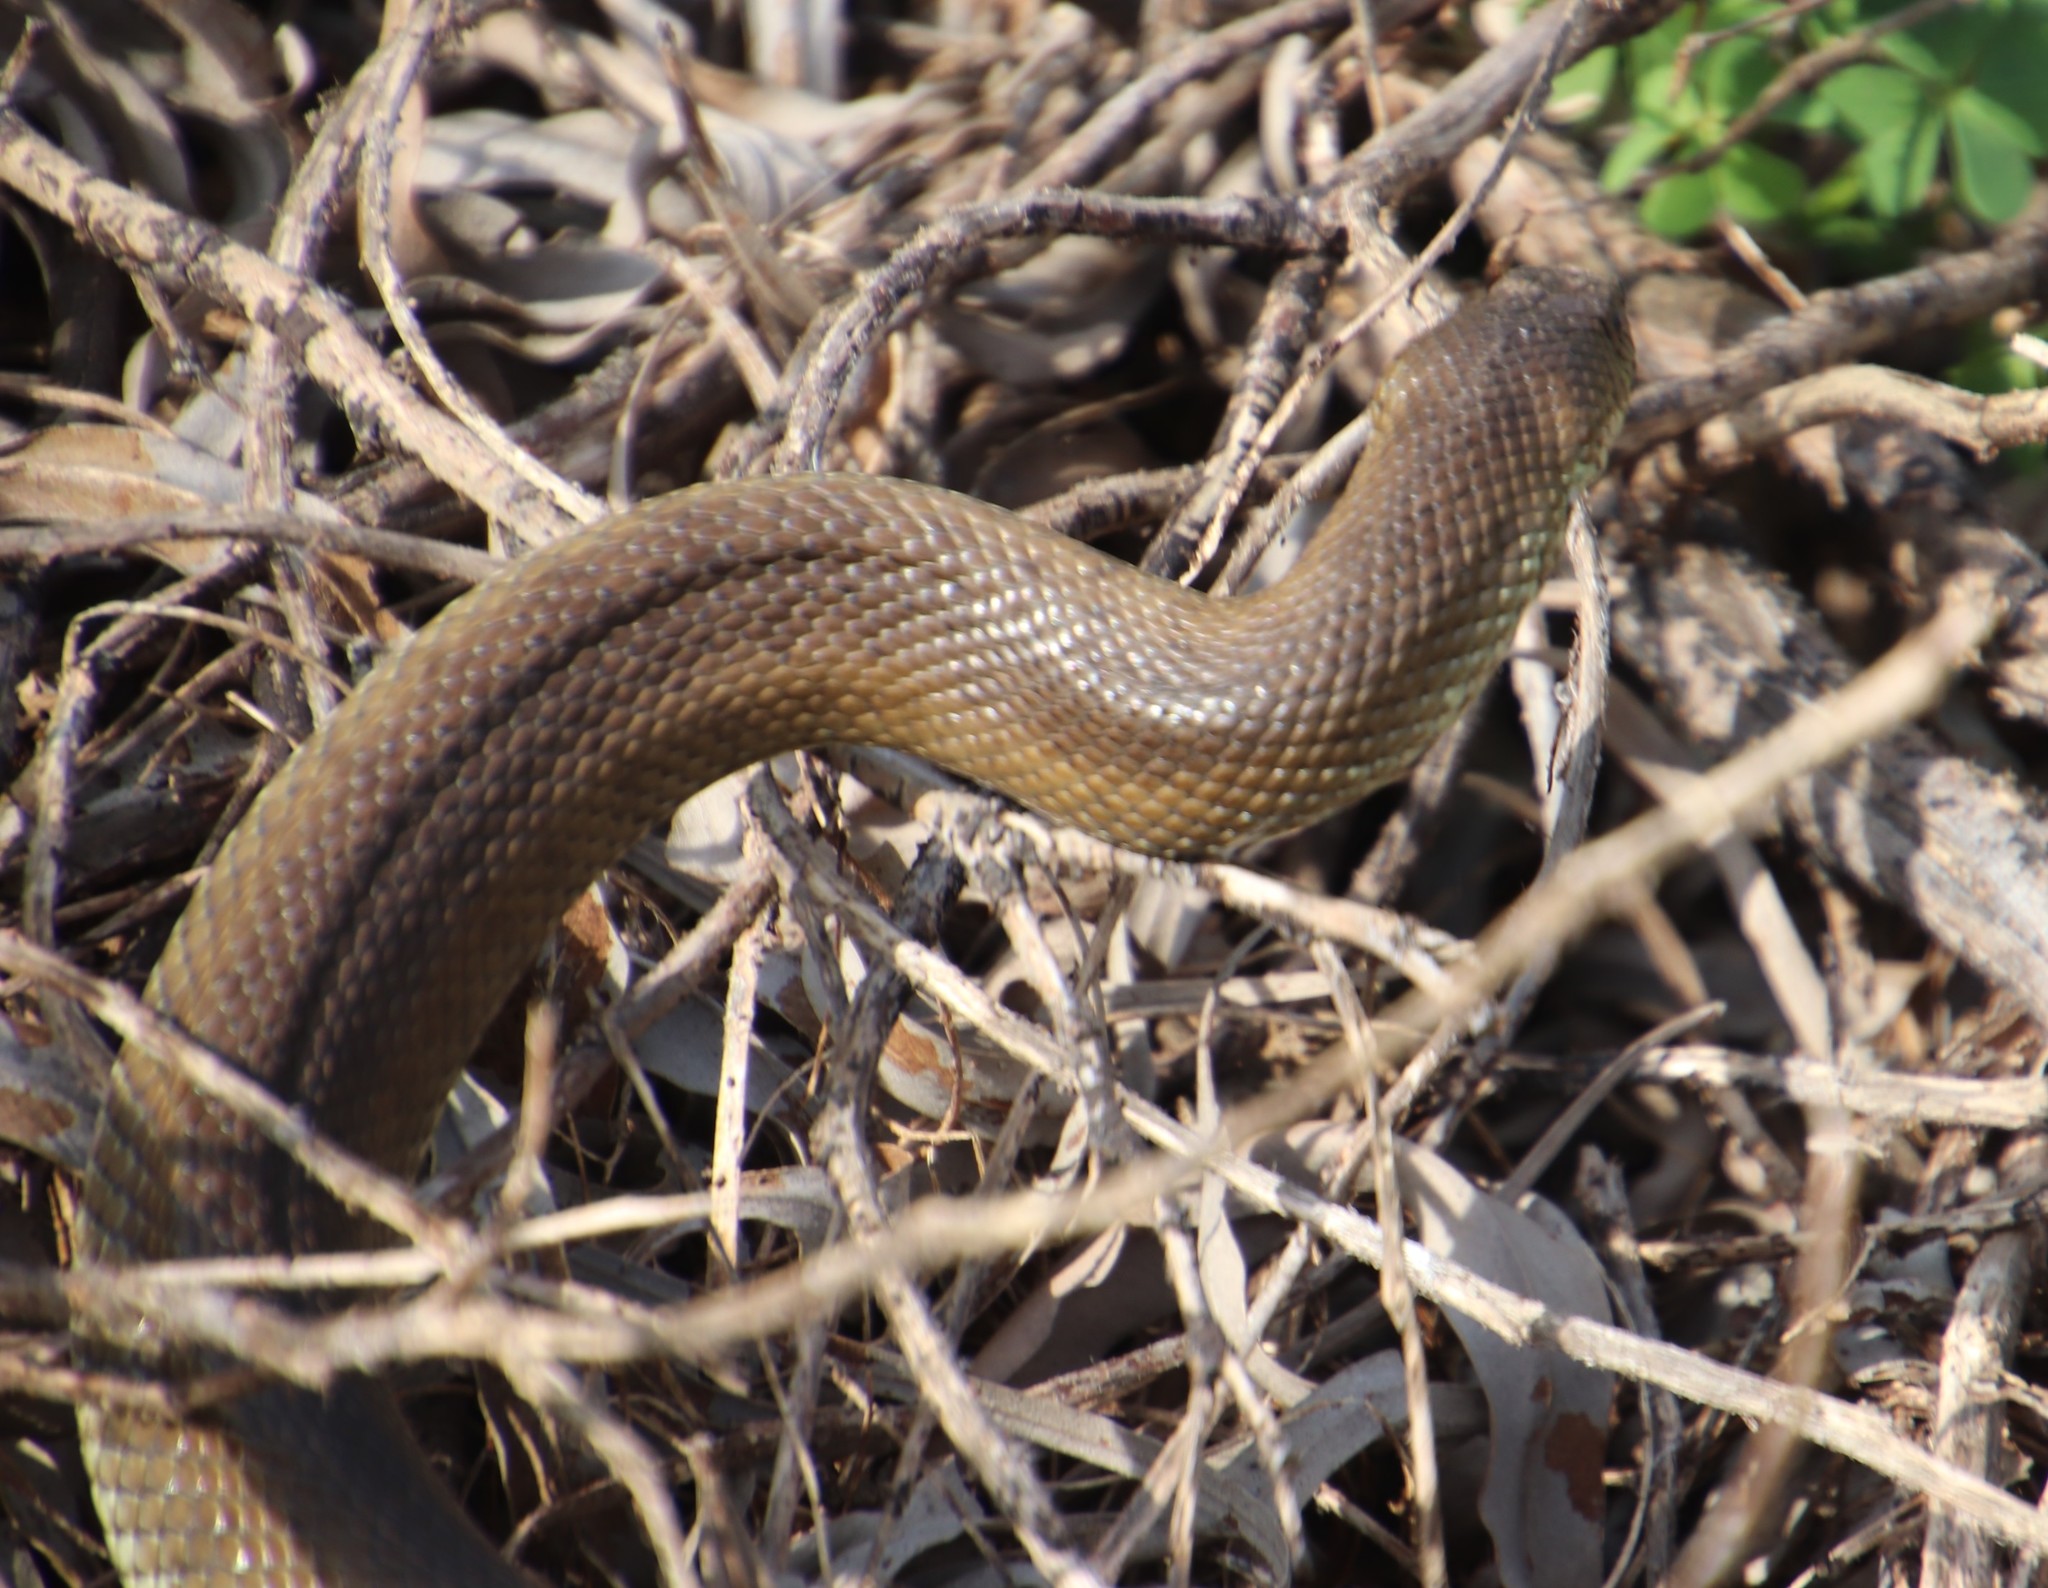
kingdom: Animalia
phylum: Chordata
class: Squamata
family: Pseudaspididae
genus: Pseudaspis
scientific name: Pseudaspis cana
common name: Mole snake
